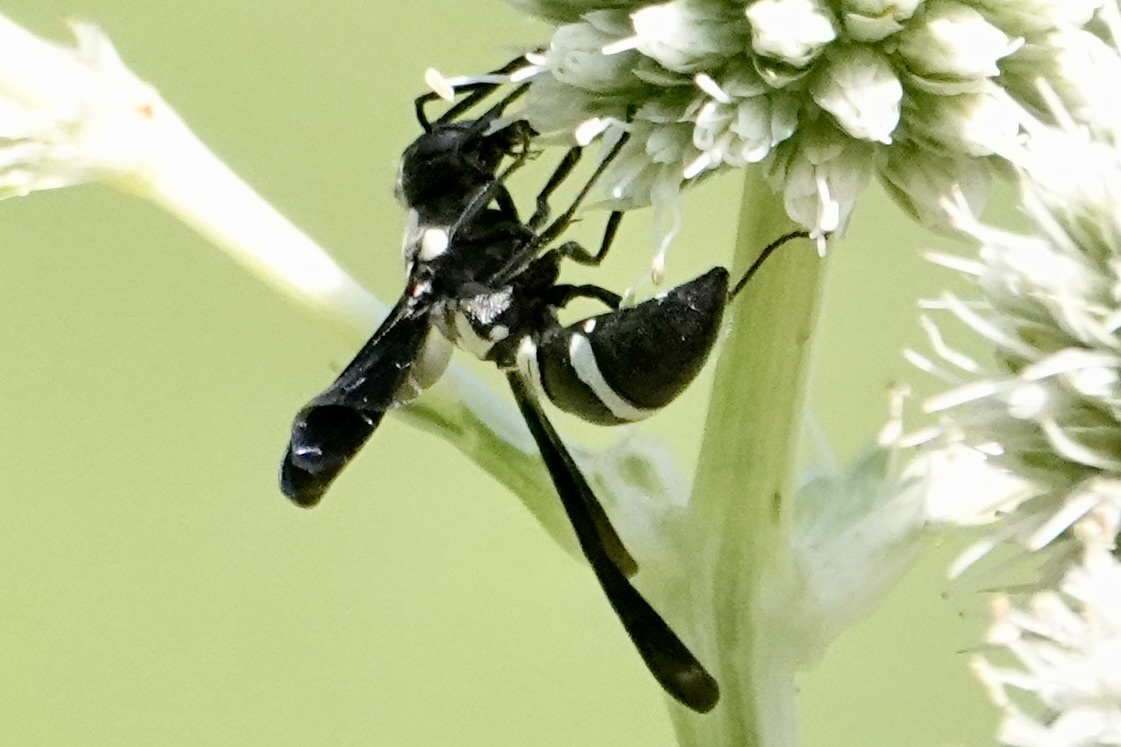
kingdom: Animalia
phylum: Arthropoda
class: Insecta
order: Hymenoptera
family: Eumenidae
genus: Pseudodynerus
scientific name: Pseudodynerus quadrisectus
